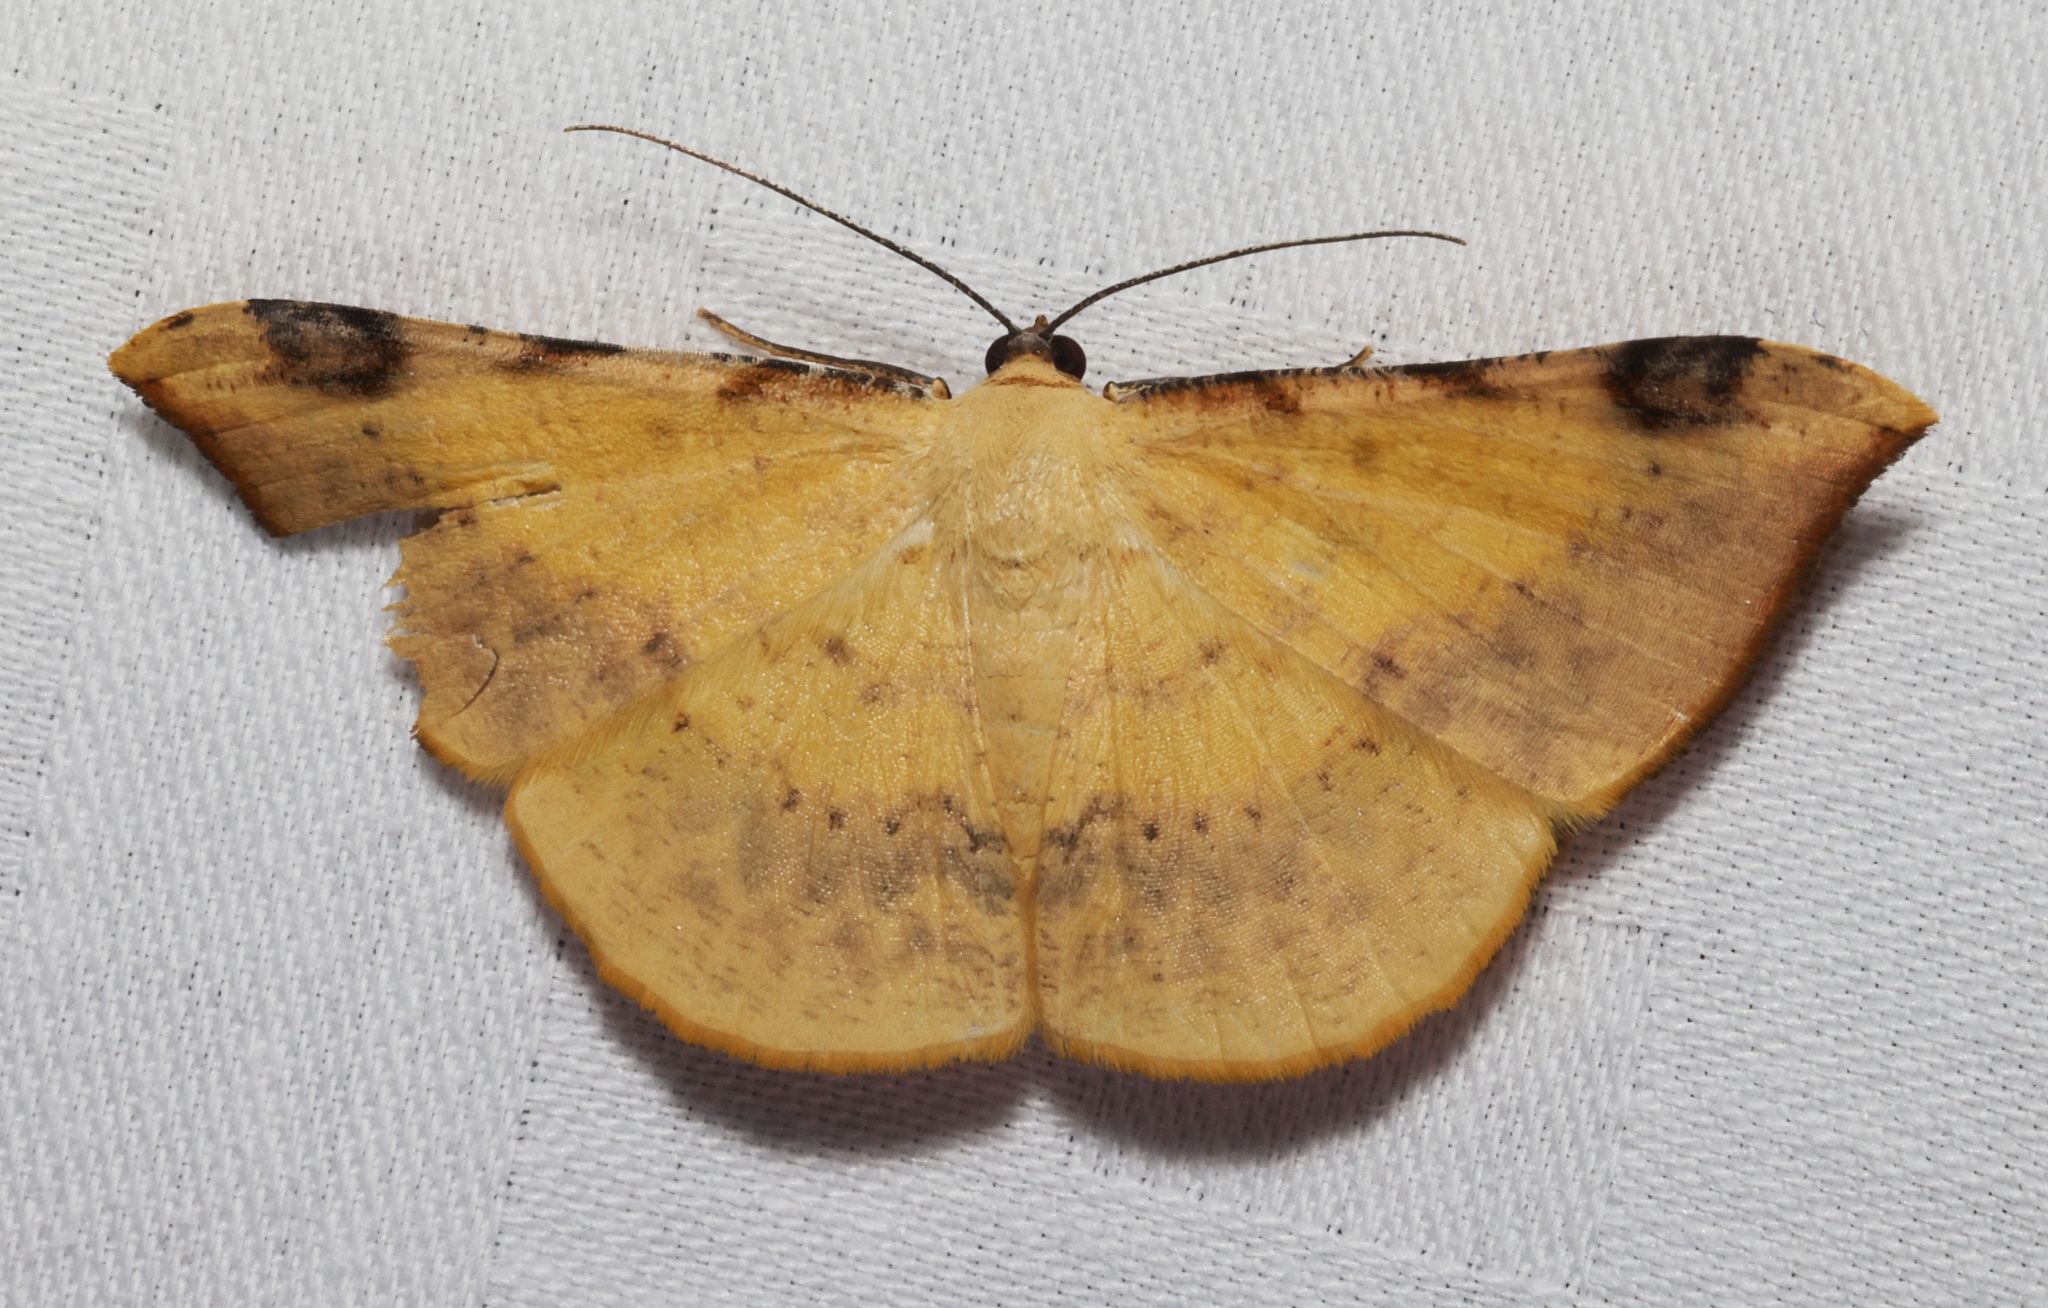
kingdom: Animalia
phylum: Arthropoda
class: Insecta
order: Lepidoptera
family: Geometridae
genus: Luxiaria
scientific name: Luxiaria phyllosaria
